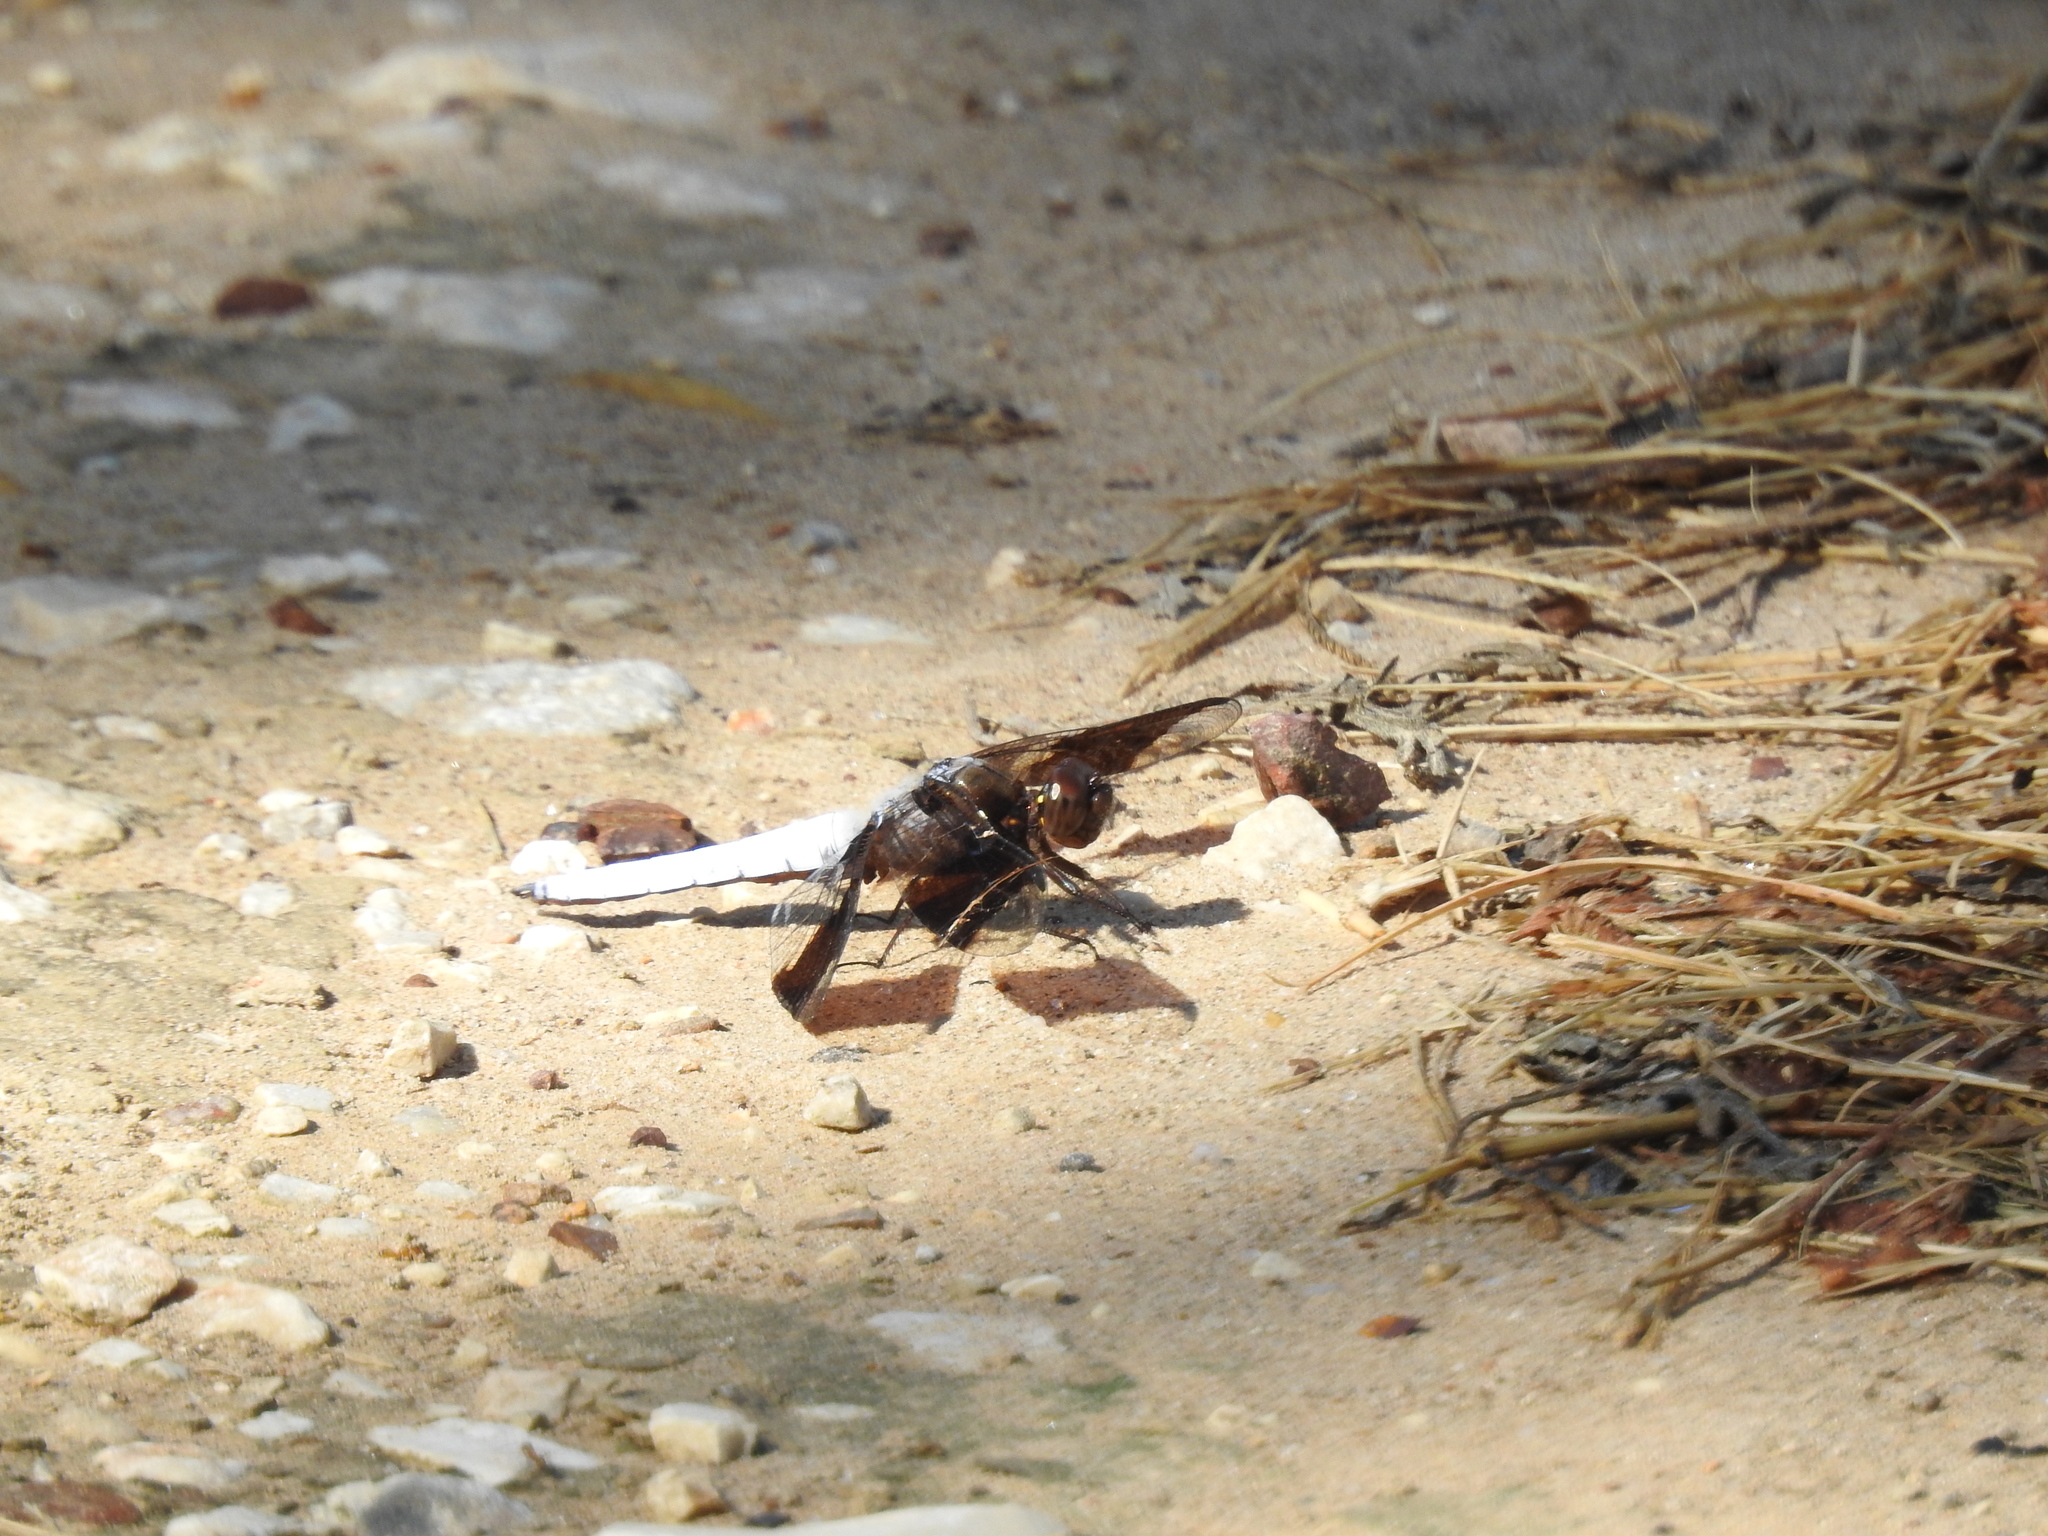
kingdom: Animalia
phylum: Arthropoda
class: Insecta
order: Odonata
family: Libellulidae
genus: Plathemis
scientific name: Plathemis lydia
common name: Common whitetail
